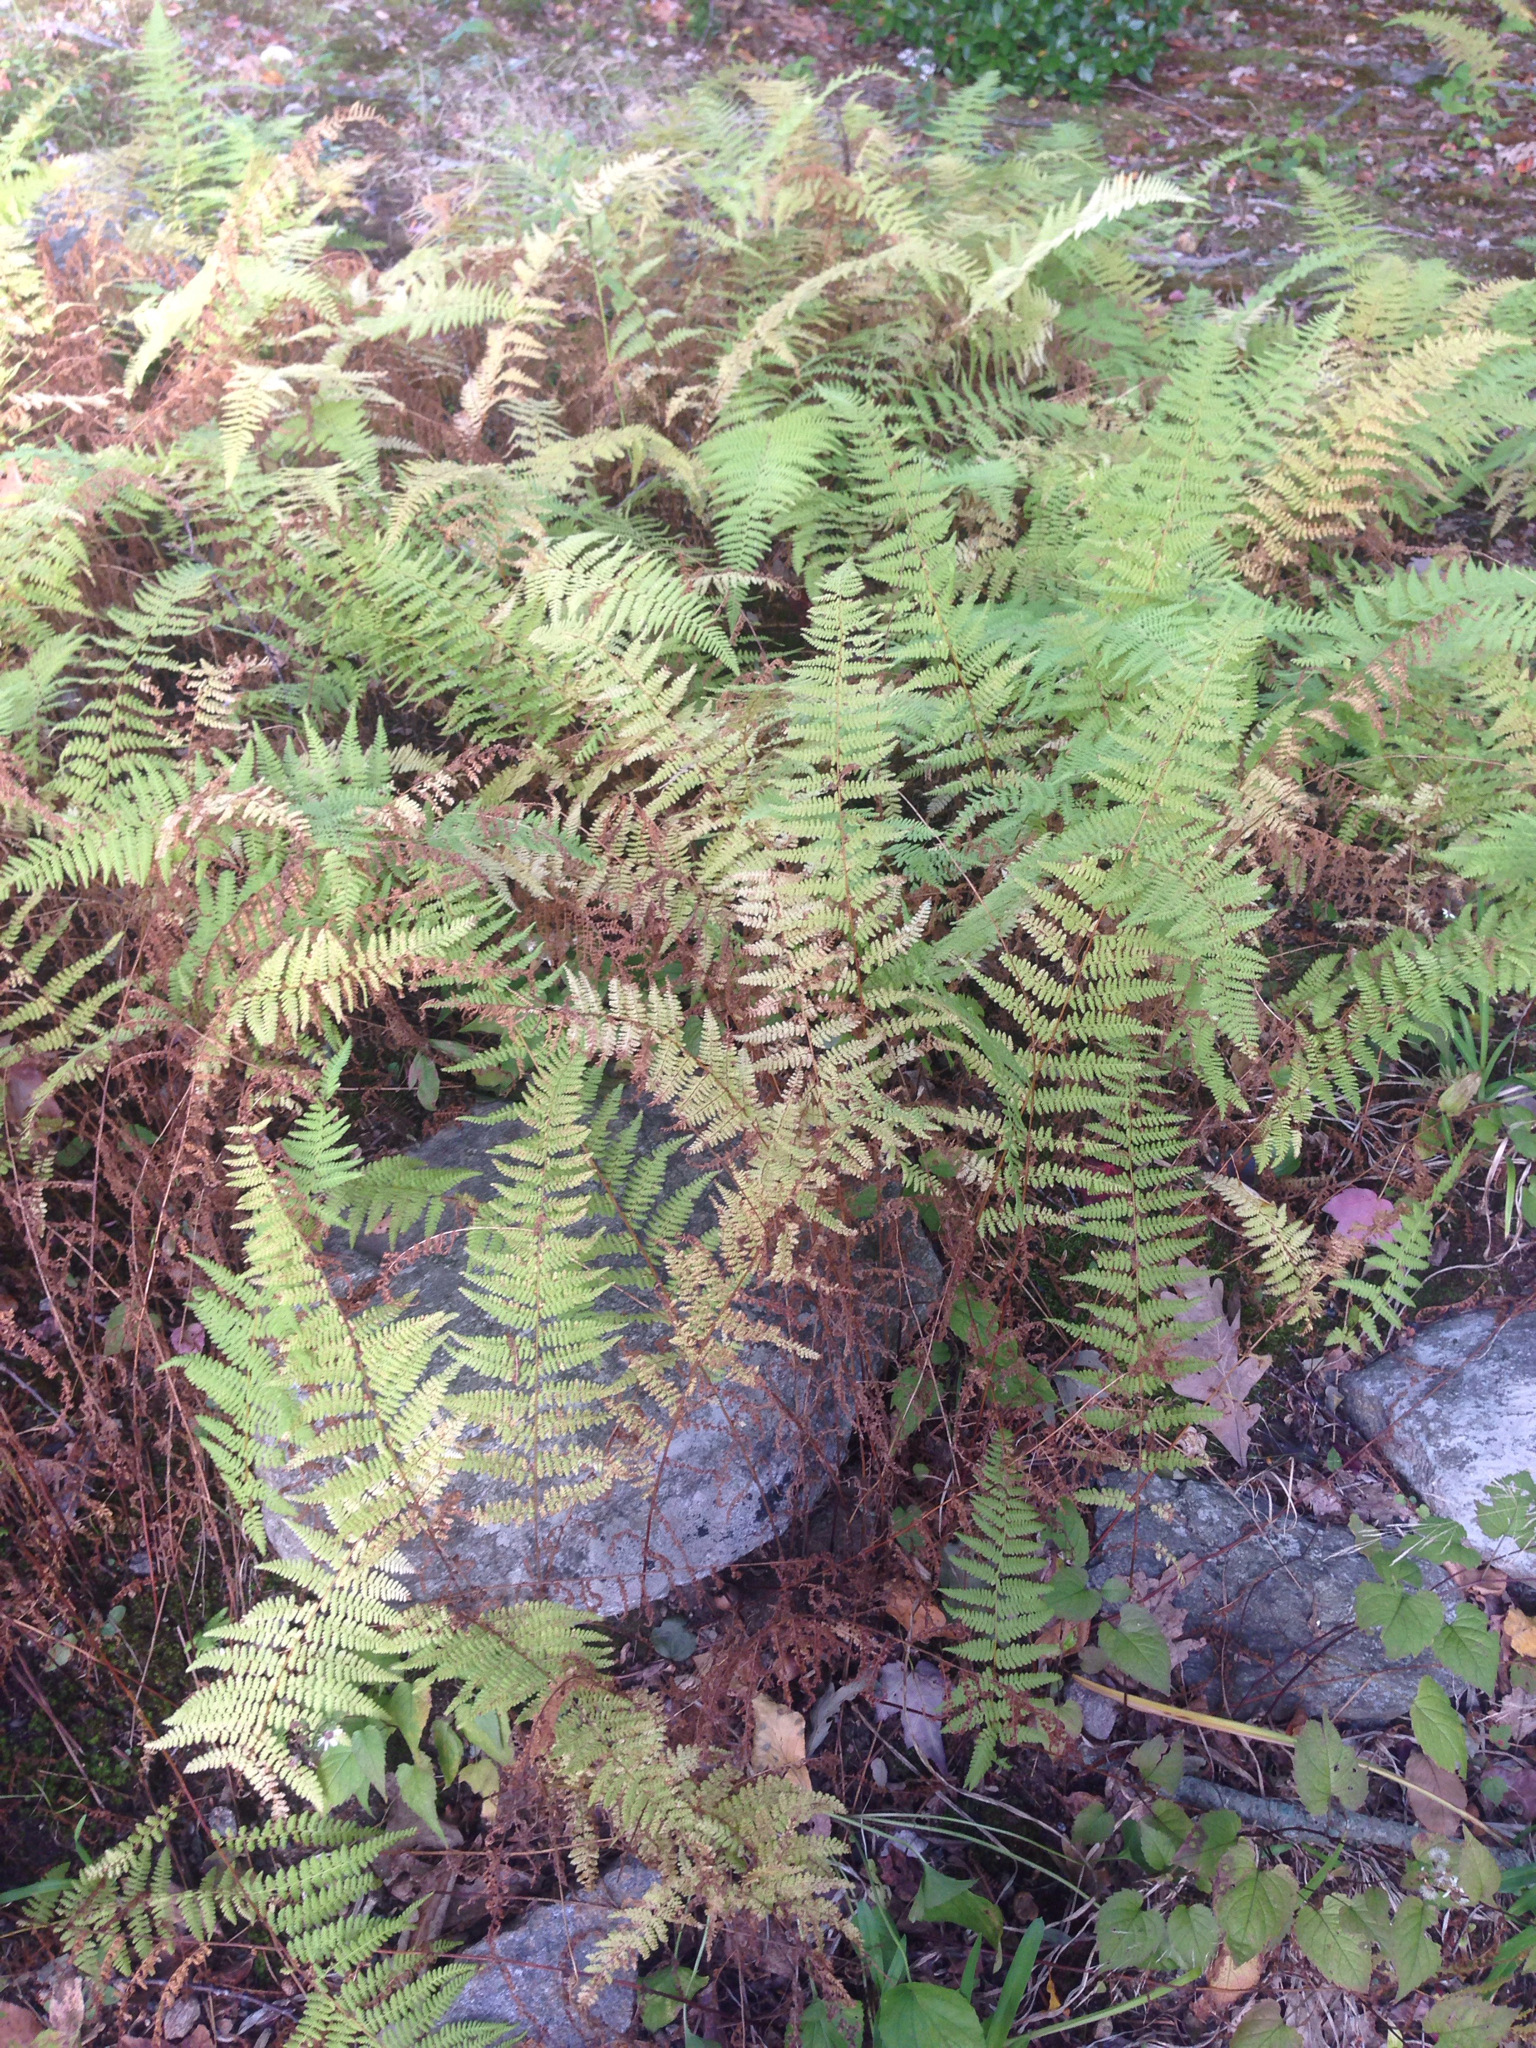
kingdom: Plantae
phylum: Tracheophyta
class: Polypodiopsida
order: Polypodiales
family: Dennstaedtiaceae
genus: Sitobolium
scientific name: Sitobolium punctilobum
